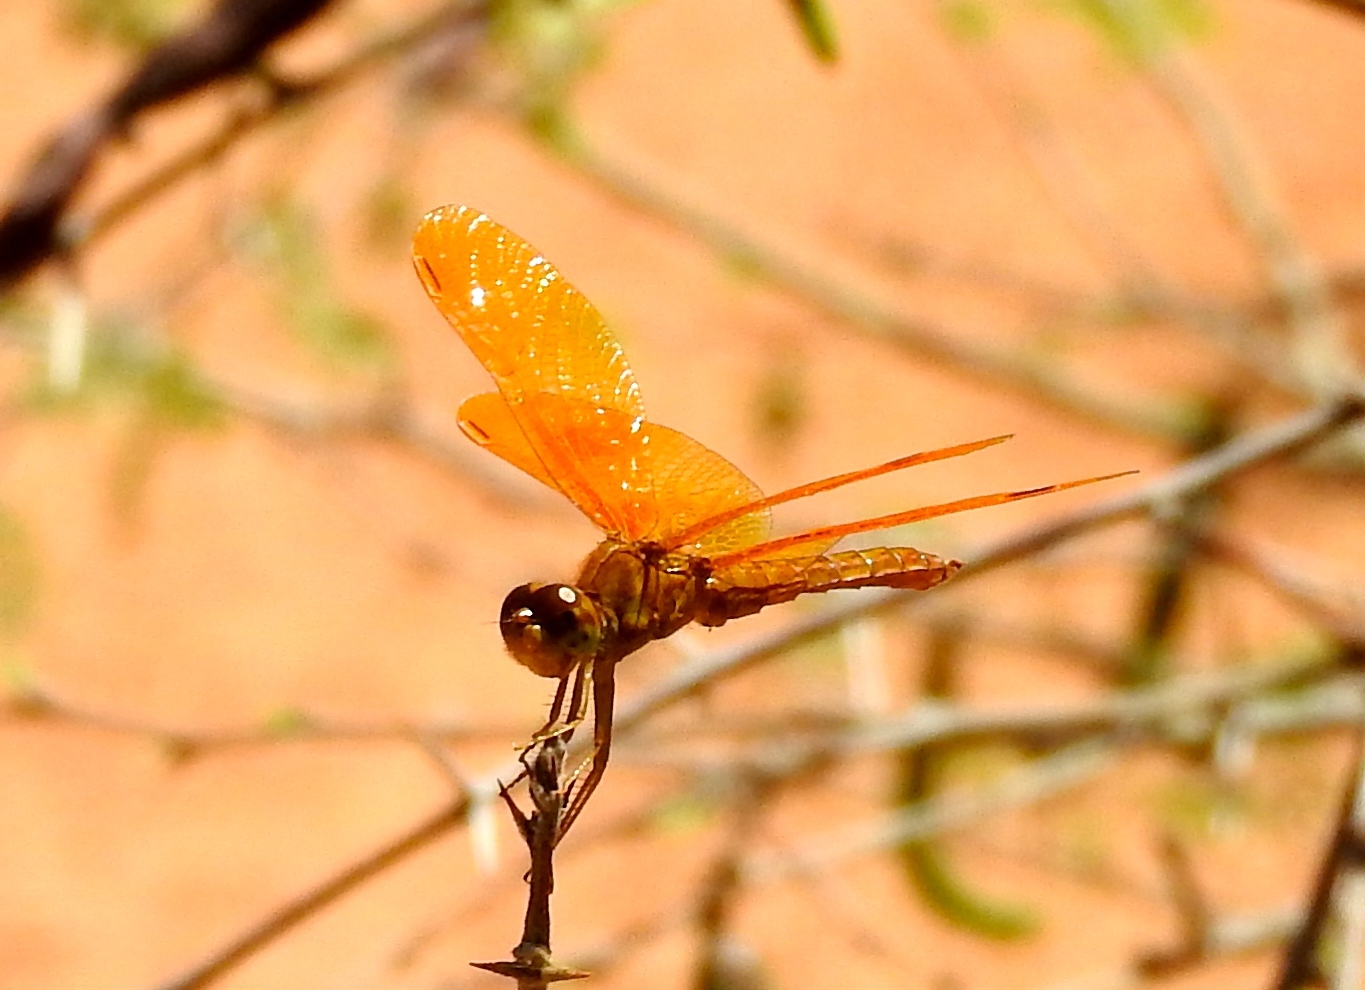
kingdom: Animalia
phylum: Arthropoda
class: Insecta
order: Odonata
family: Libellulidae
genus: Perithemis
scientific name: Perithemis intensa
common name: Mexican amberwing
